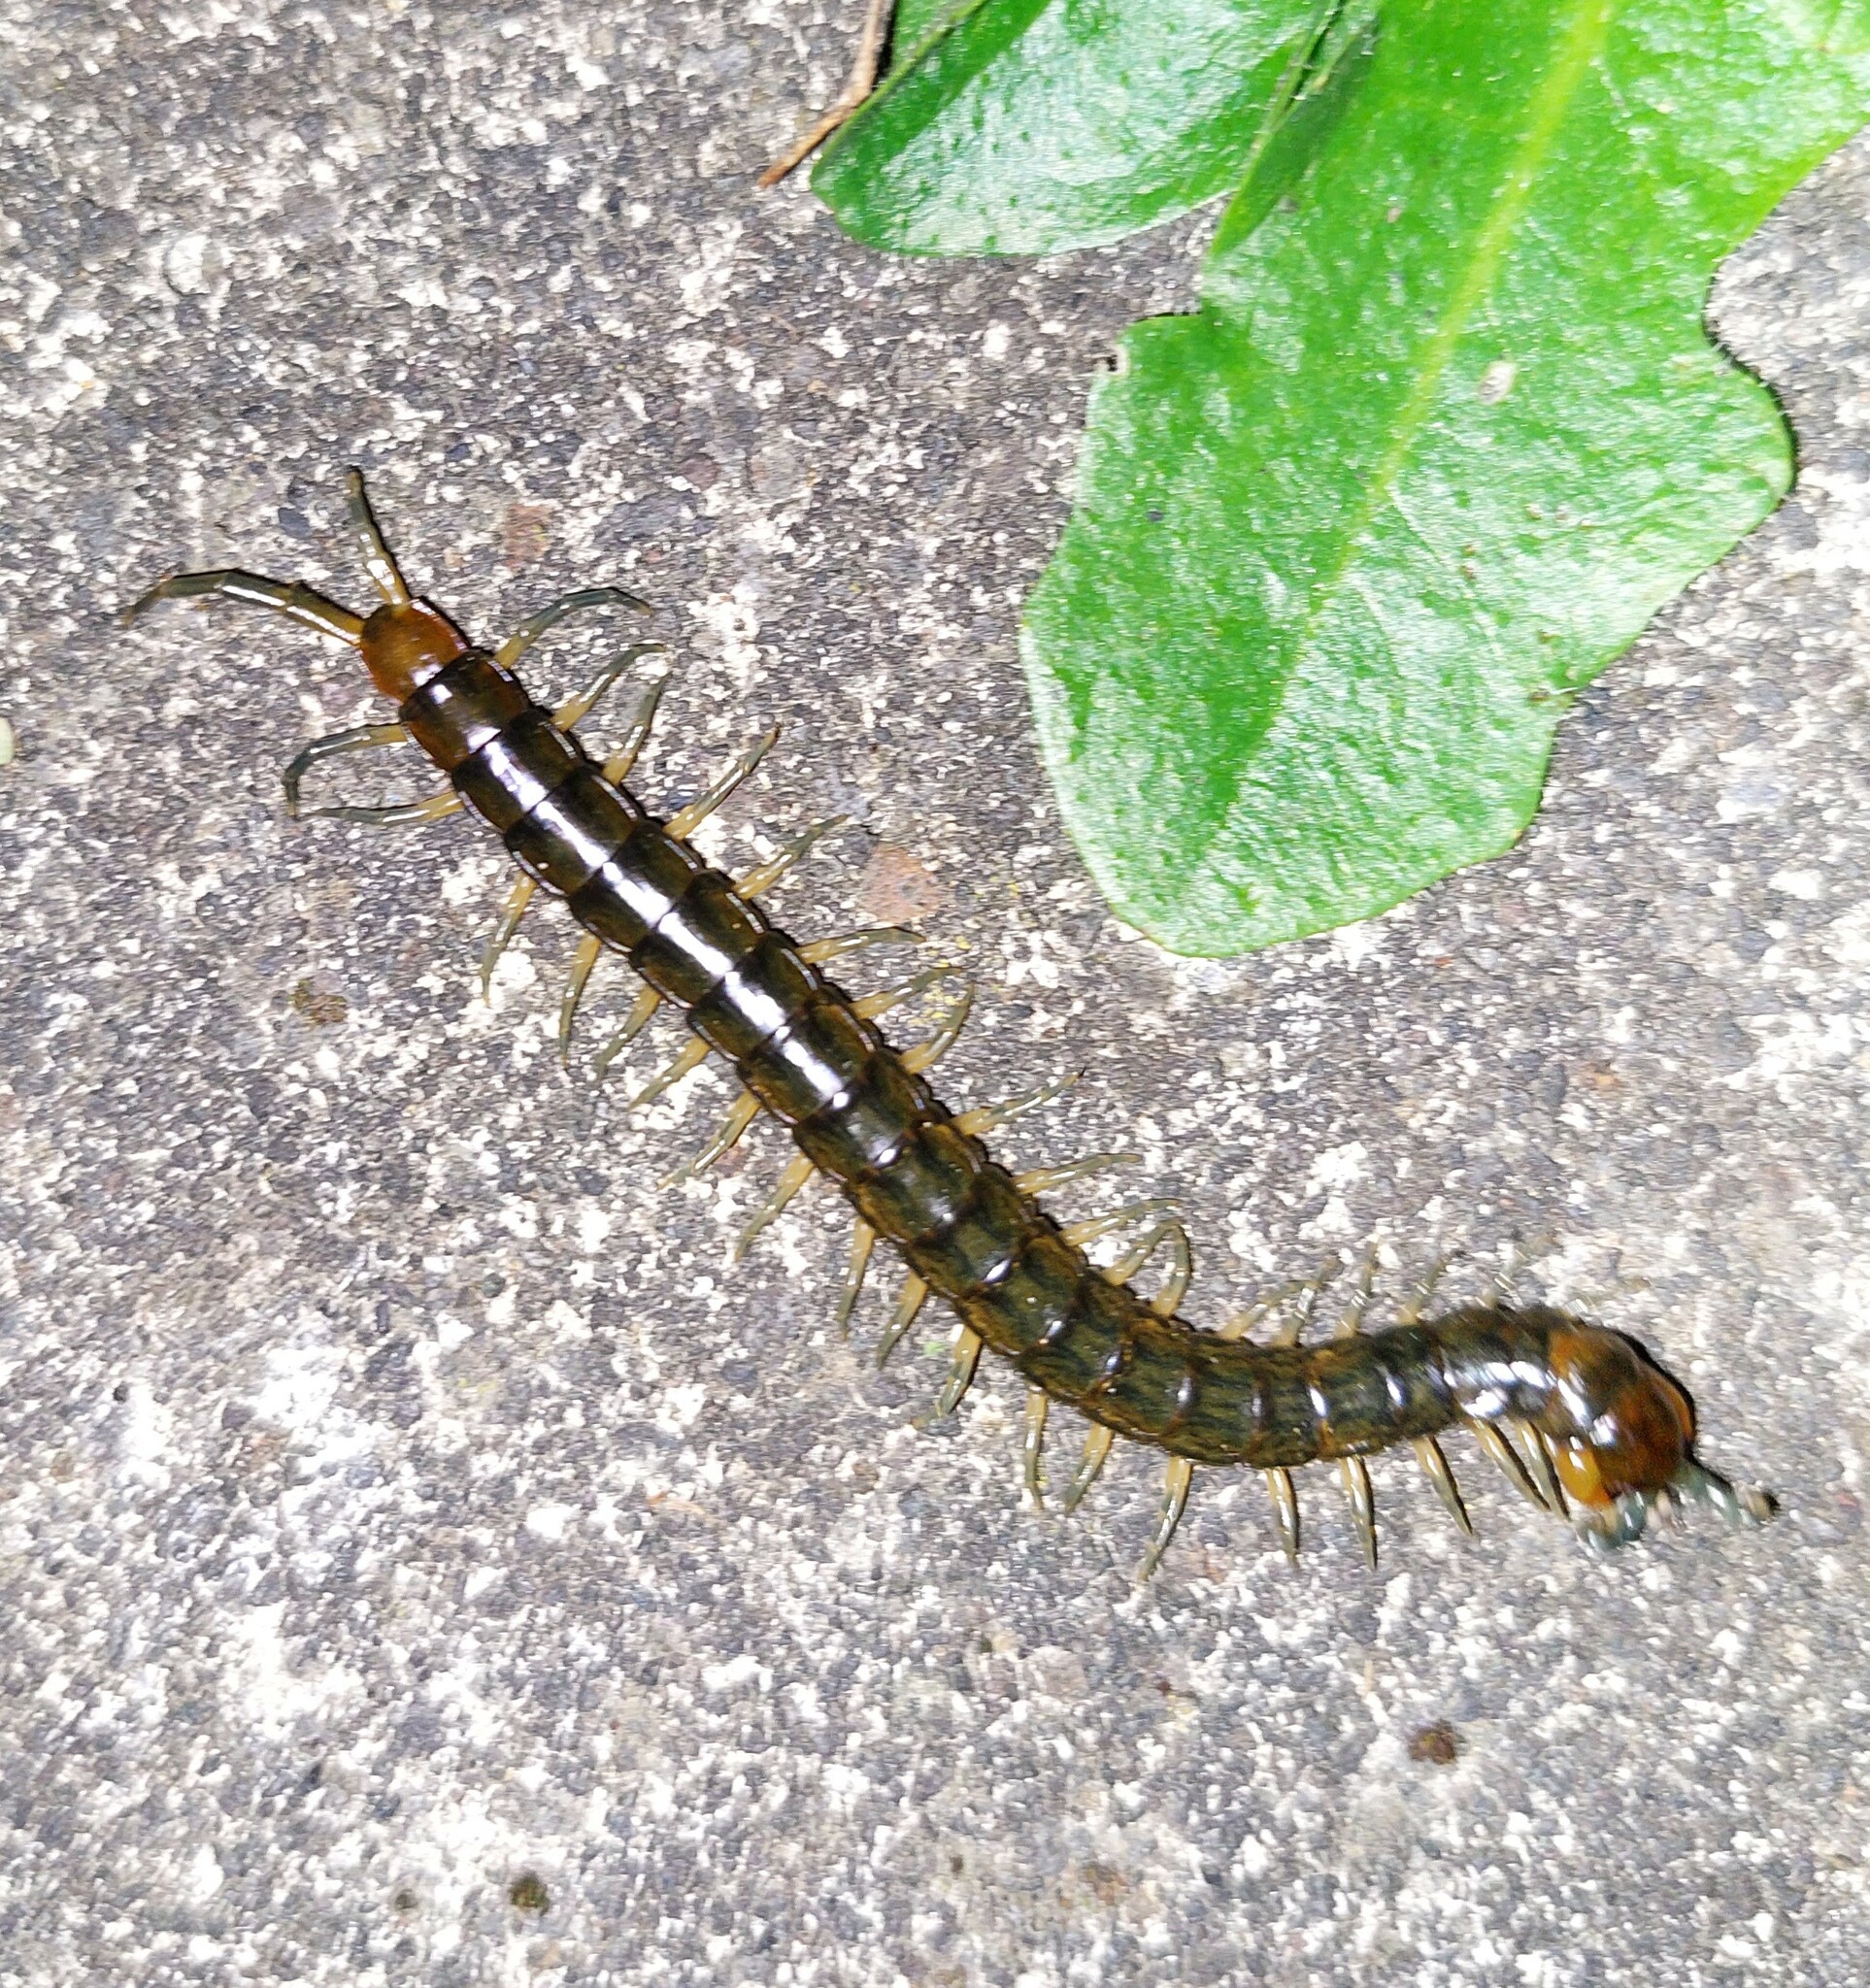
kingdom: Animalia
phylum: Arthropoda
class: Chilopoda
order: Scolopendromorpha
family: Scolopendridae
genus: Cormocephalus
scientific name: Cormocephalus rubriceps
